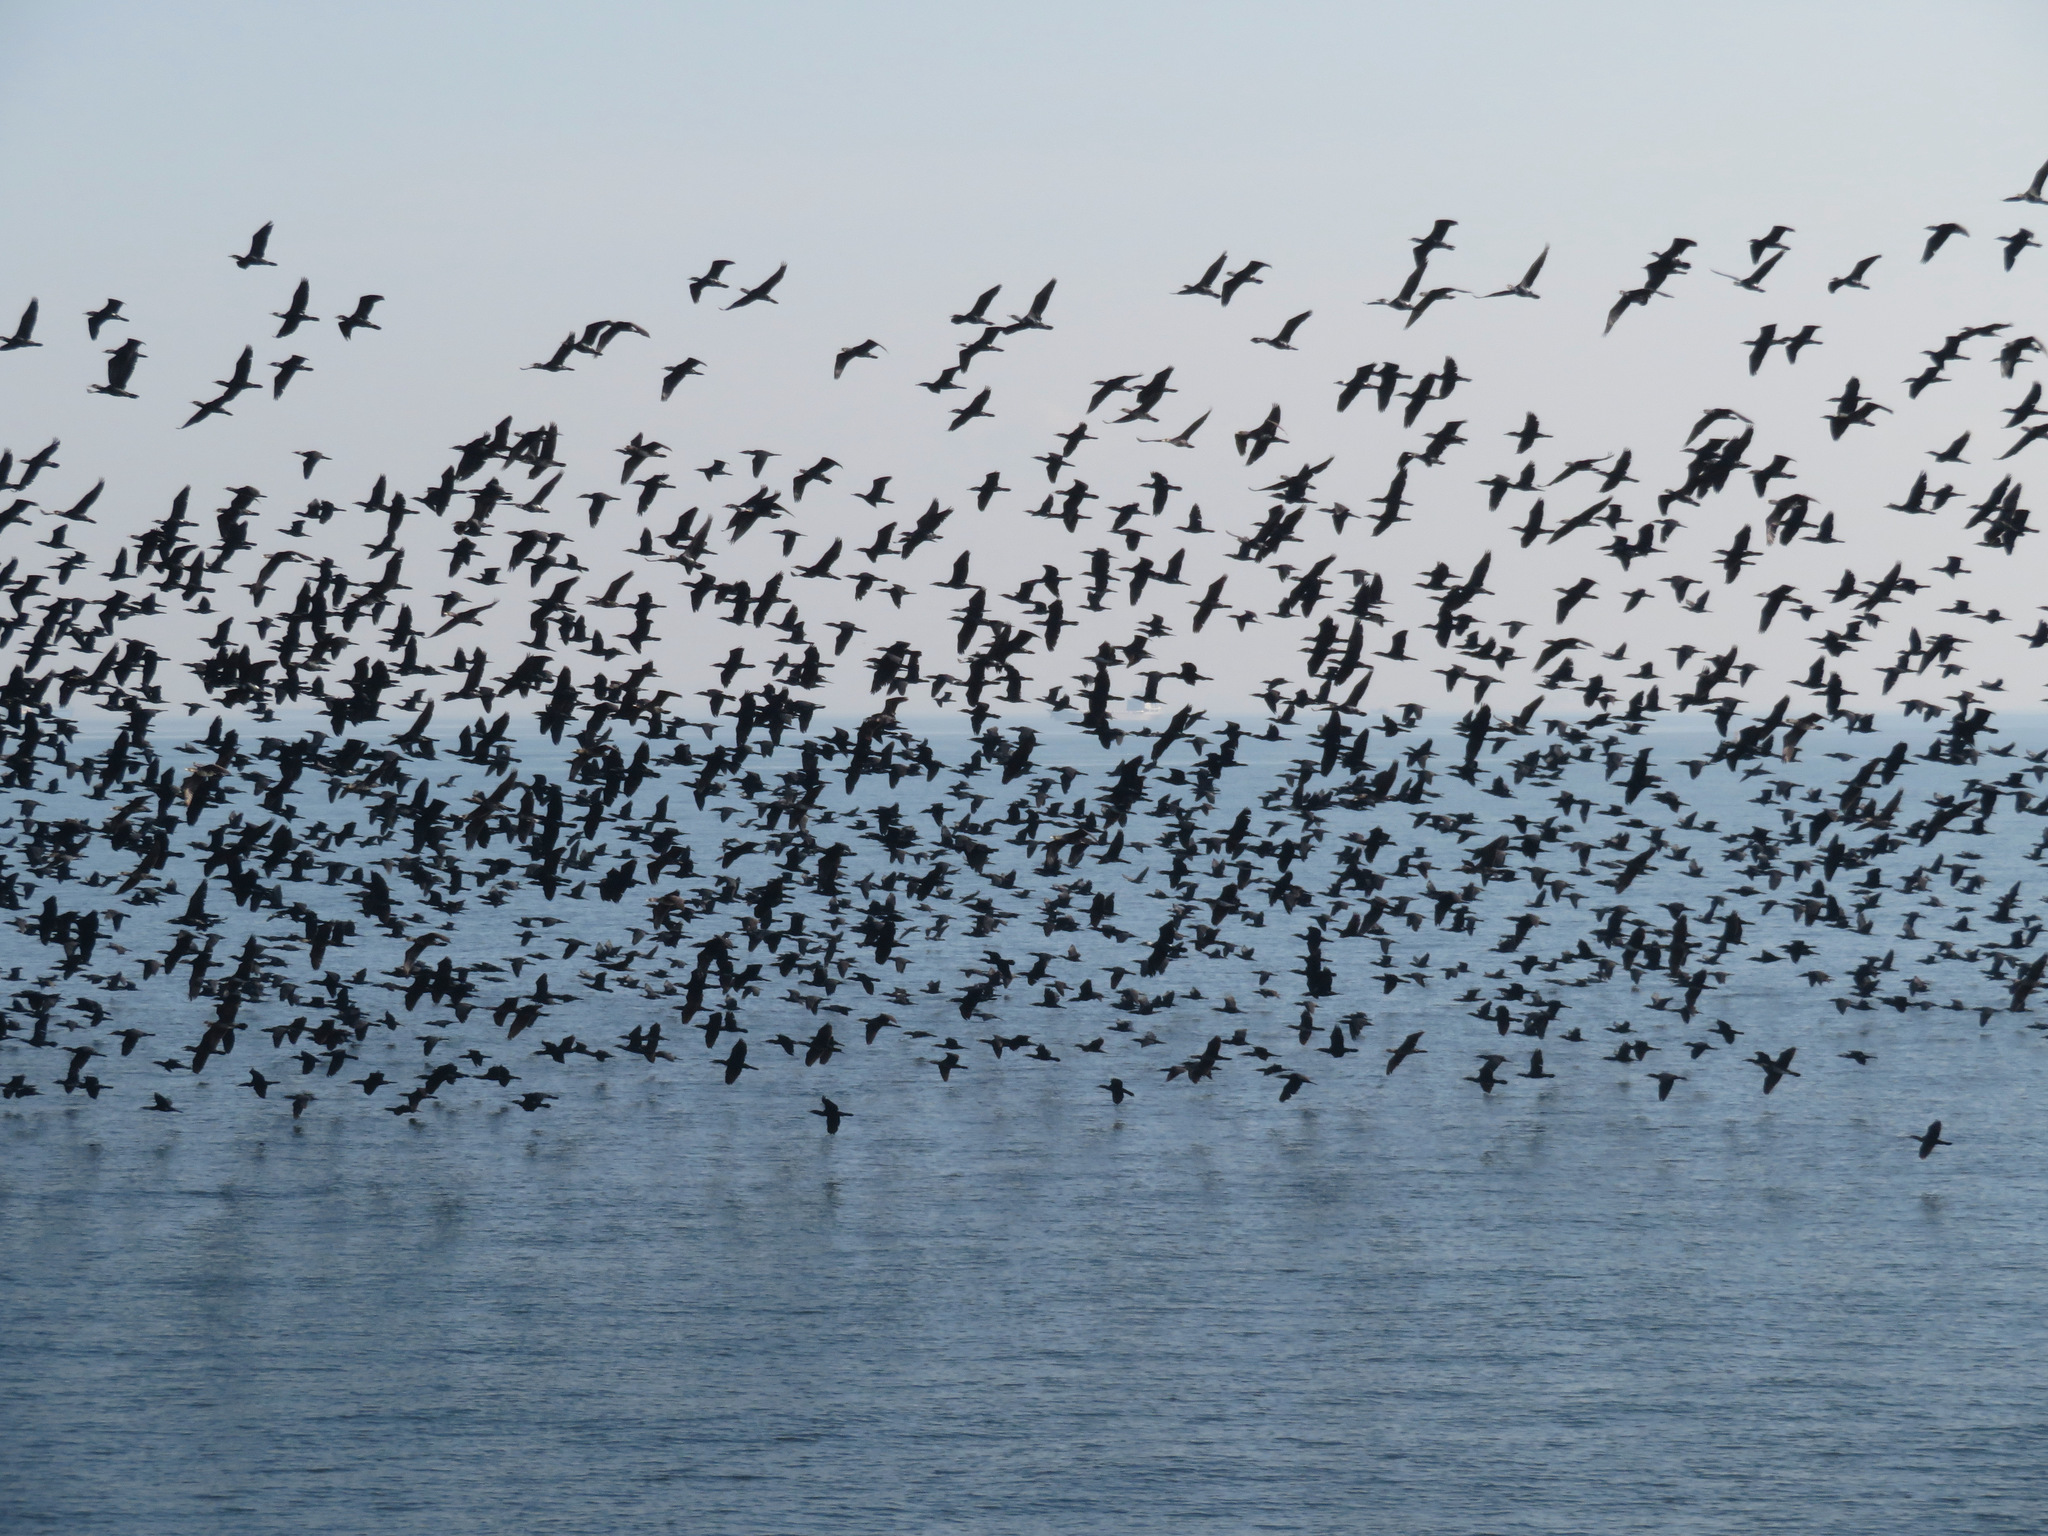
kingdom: Animalia
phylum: Chordata
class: Aves
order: Suliformes
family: Phalacrocoracidae
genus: Phalacrocorax
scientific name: Phalacrocorax carbo
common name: Great cormorant
